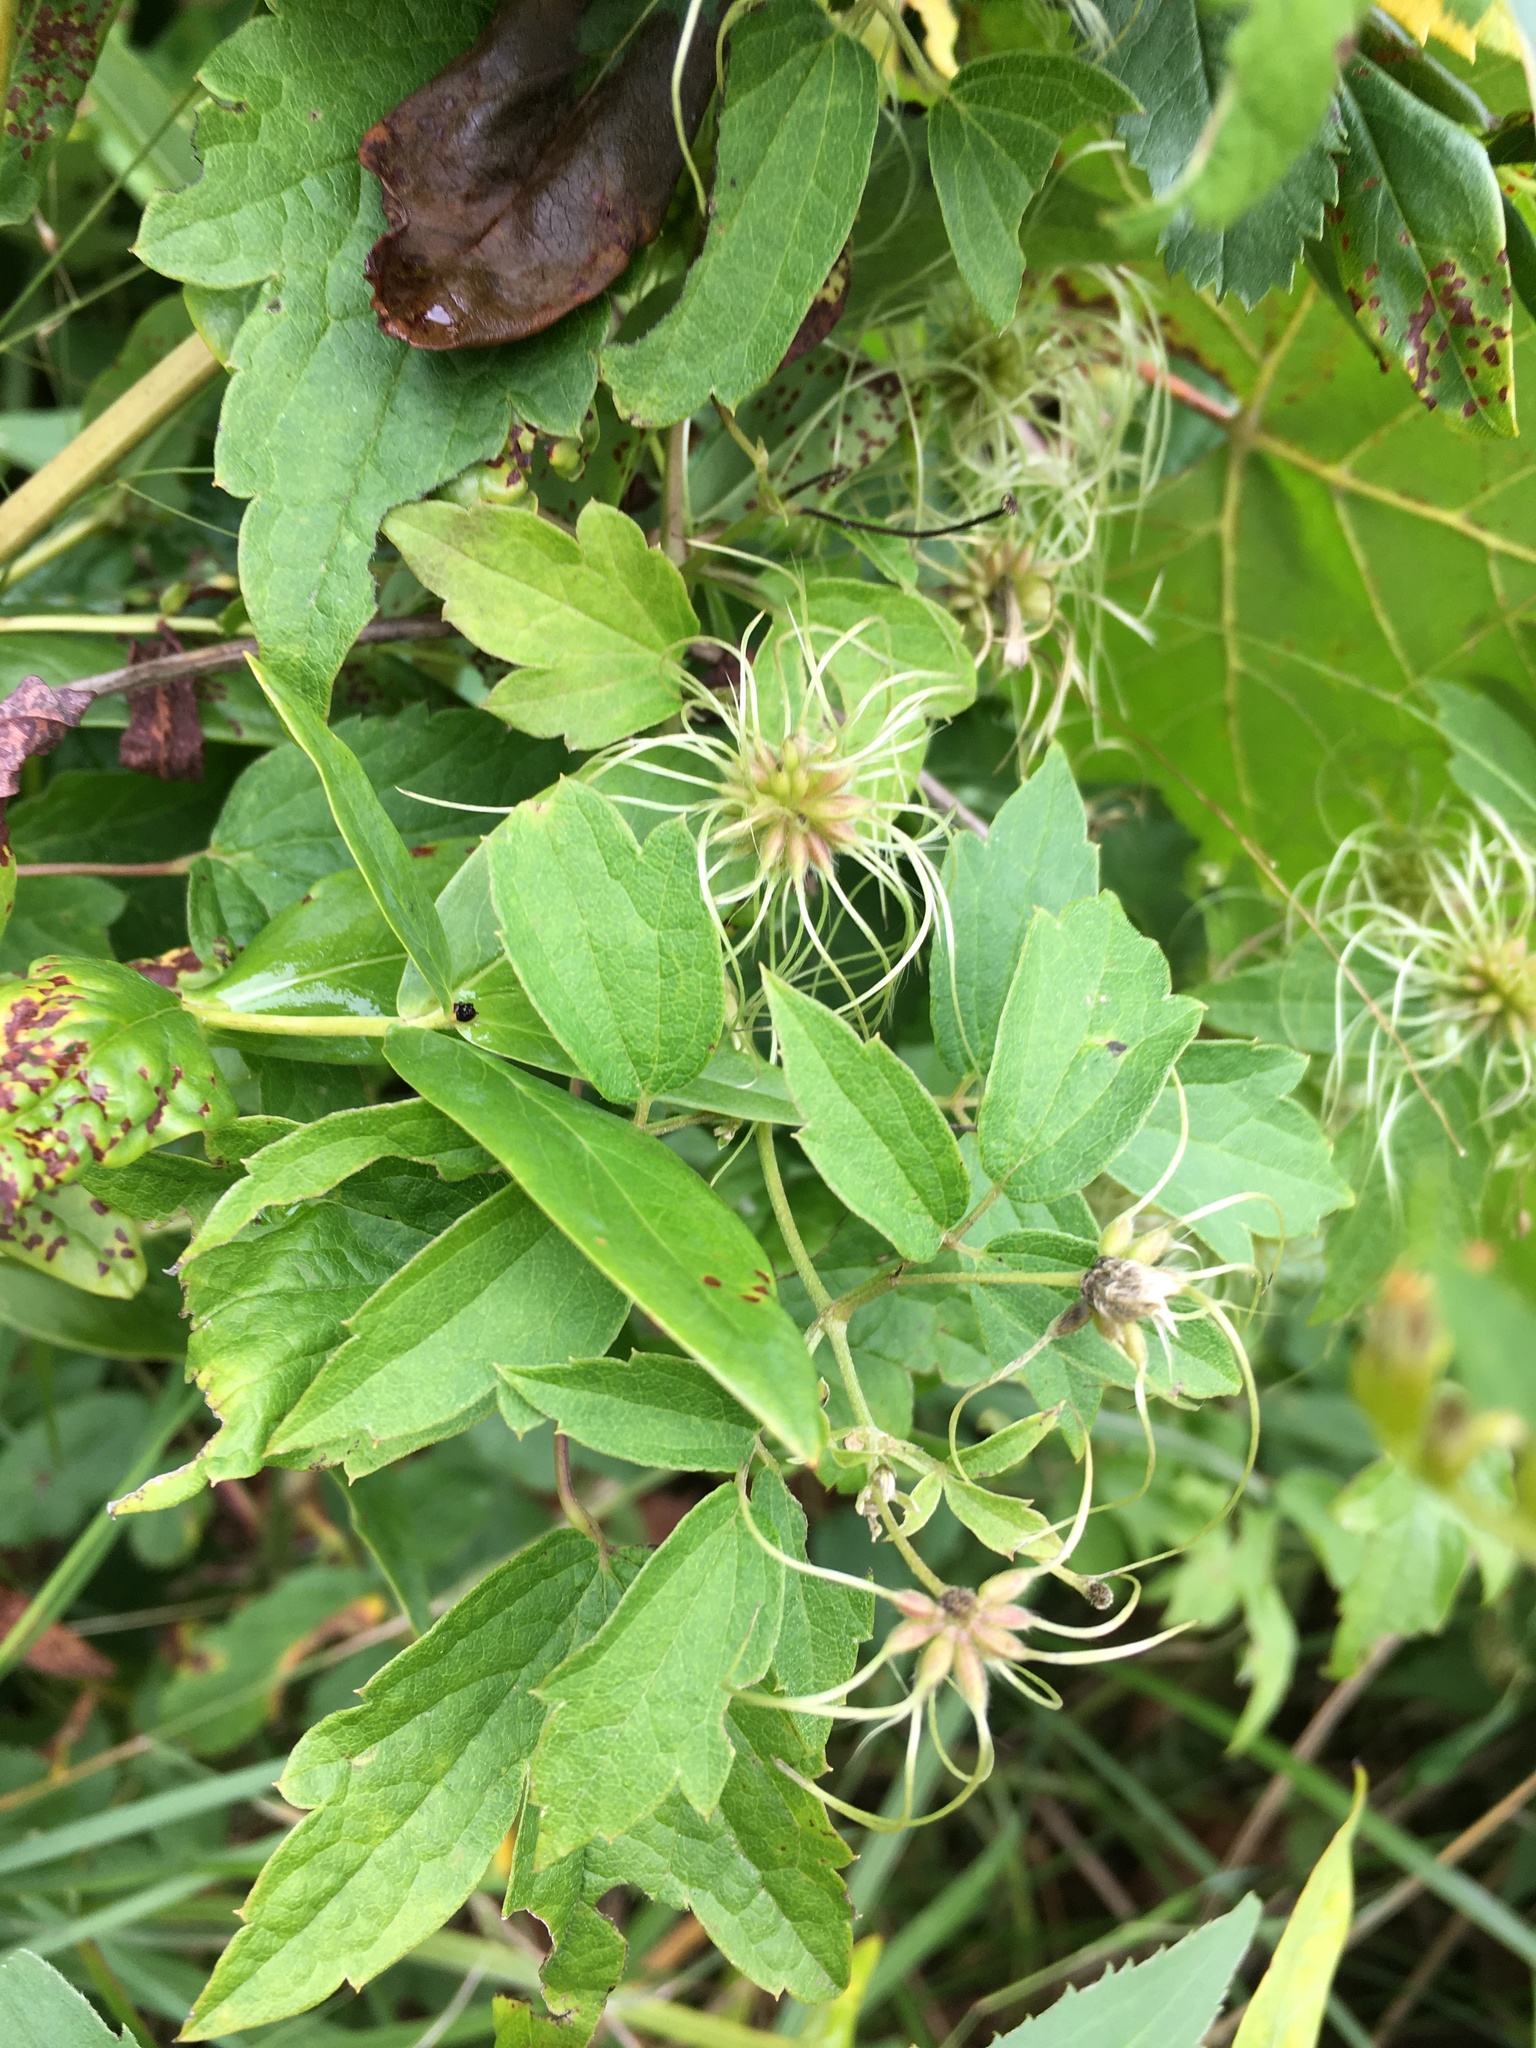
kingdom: Plantae
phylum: Tracheophyta
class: Magnoliopsida
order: Ranunculales
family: Ranunculaceae
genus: Clematis
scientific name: Clematis virginiana
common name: Virgin's-bower
